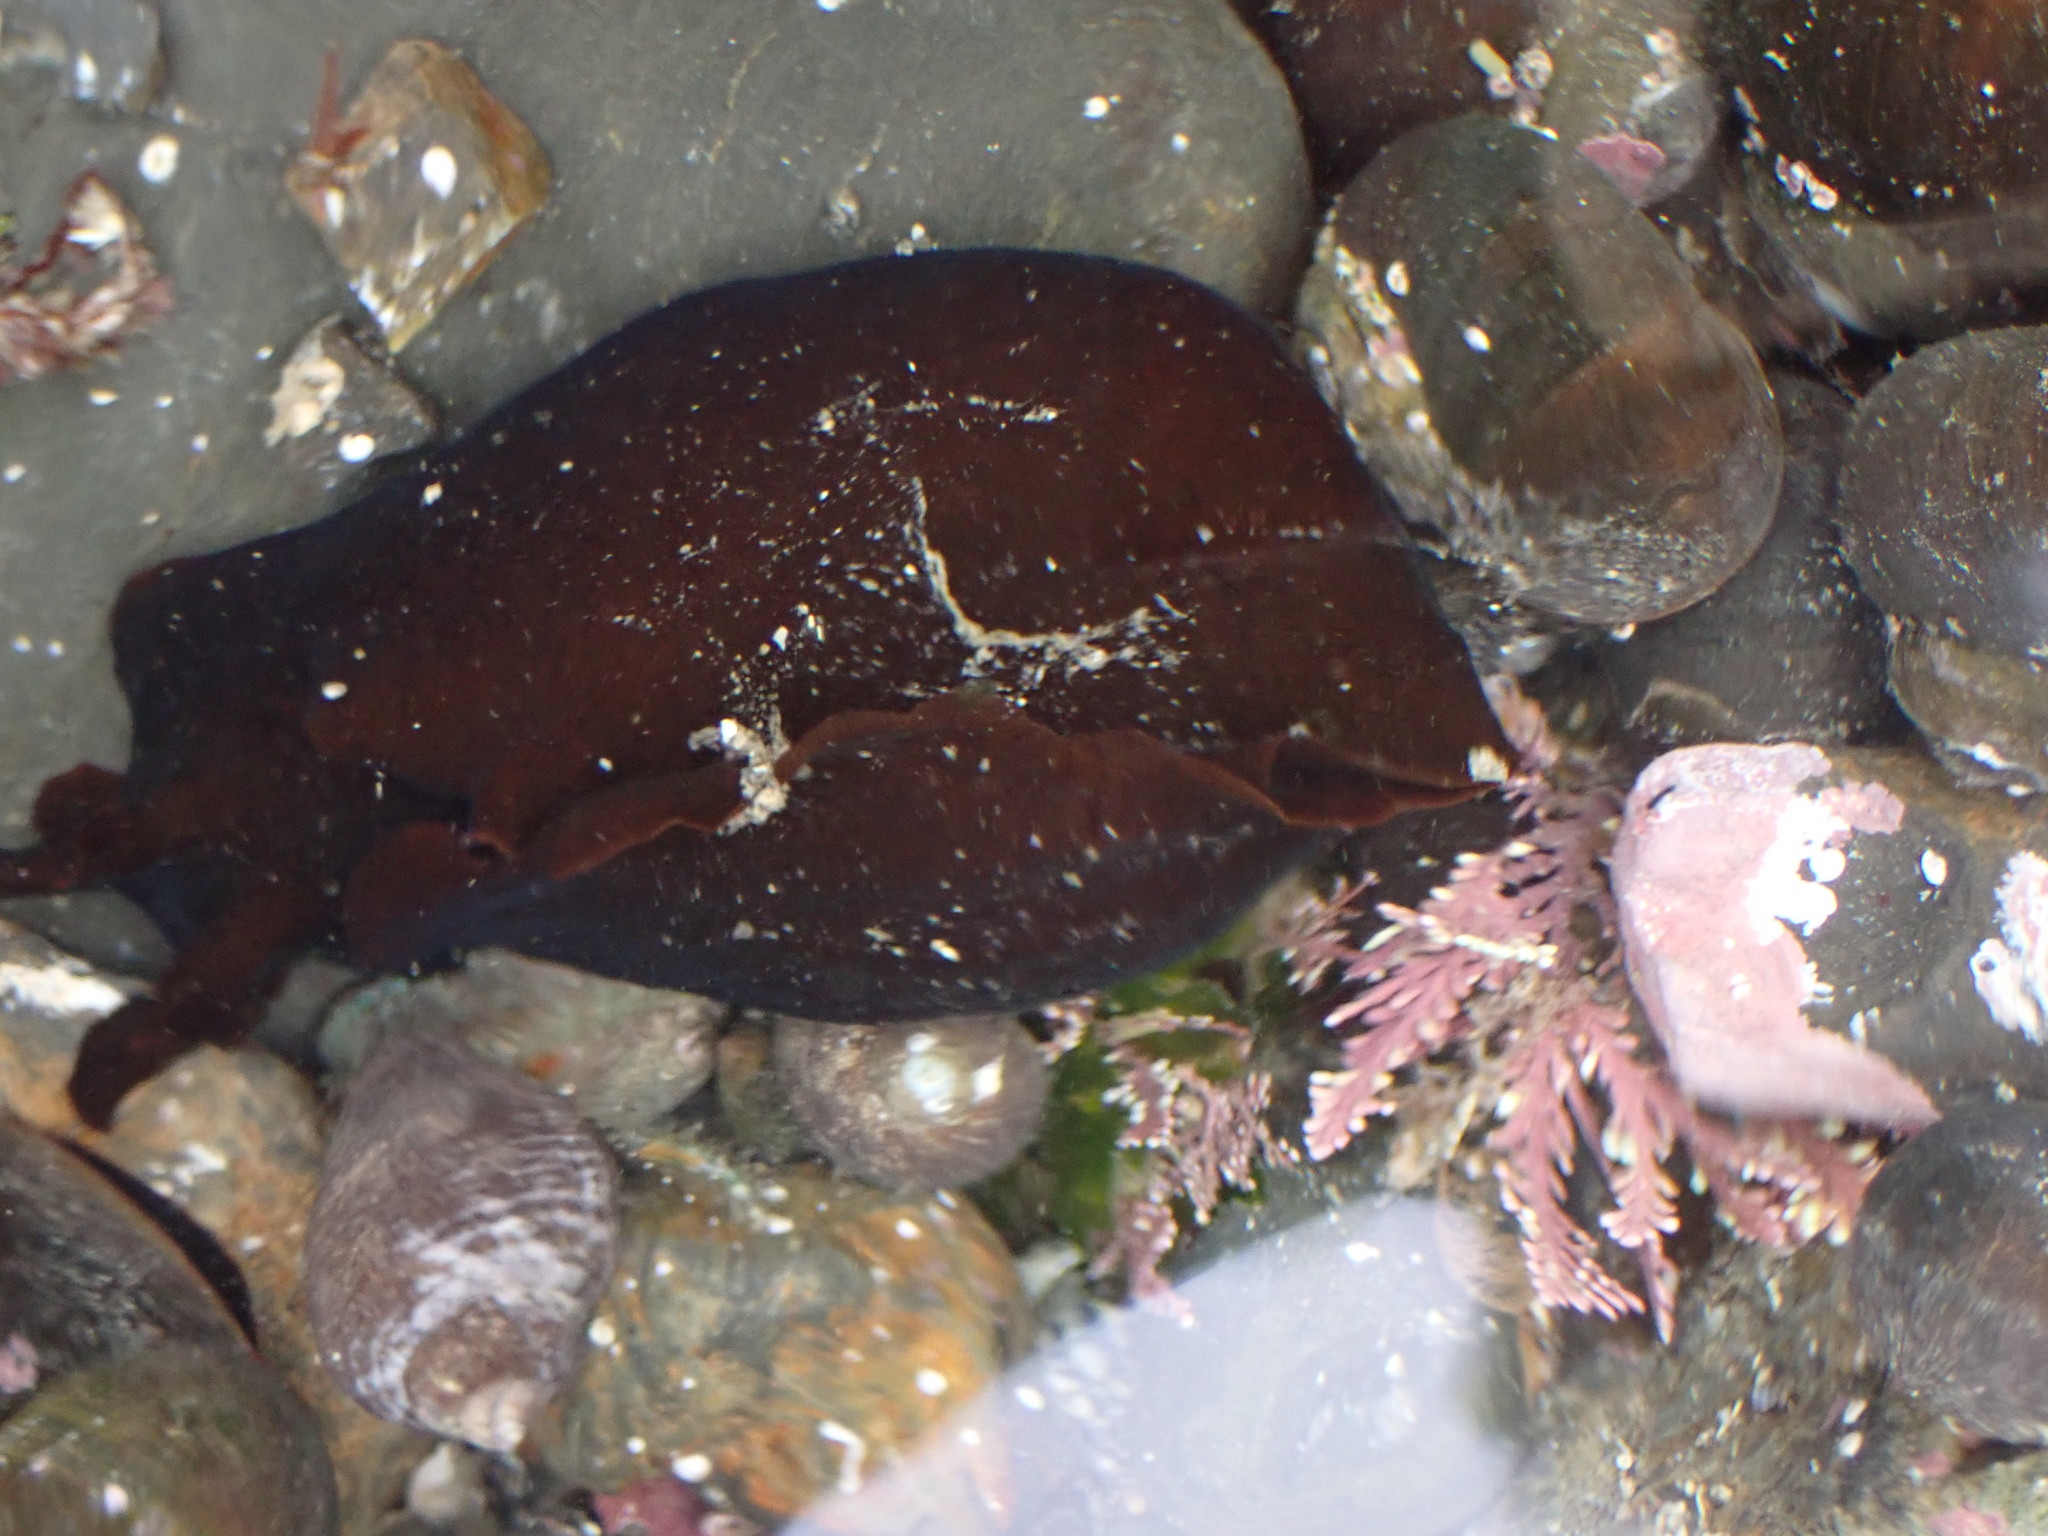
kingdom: Animalia
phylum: Mollusca
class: Gastropoda
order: Aplysiida
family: Aplysiidae
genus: Aplysia
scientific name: Aplysia juliana
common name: Walking sea hare
